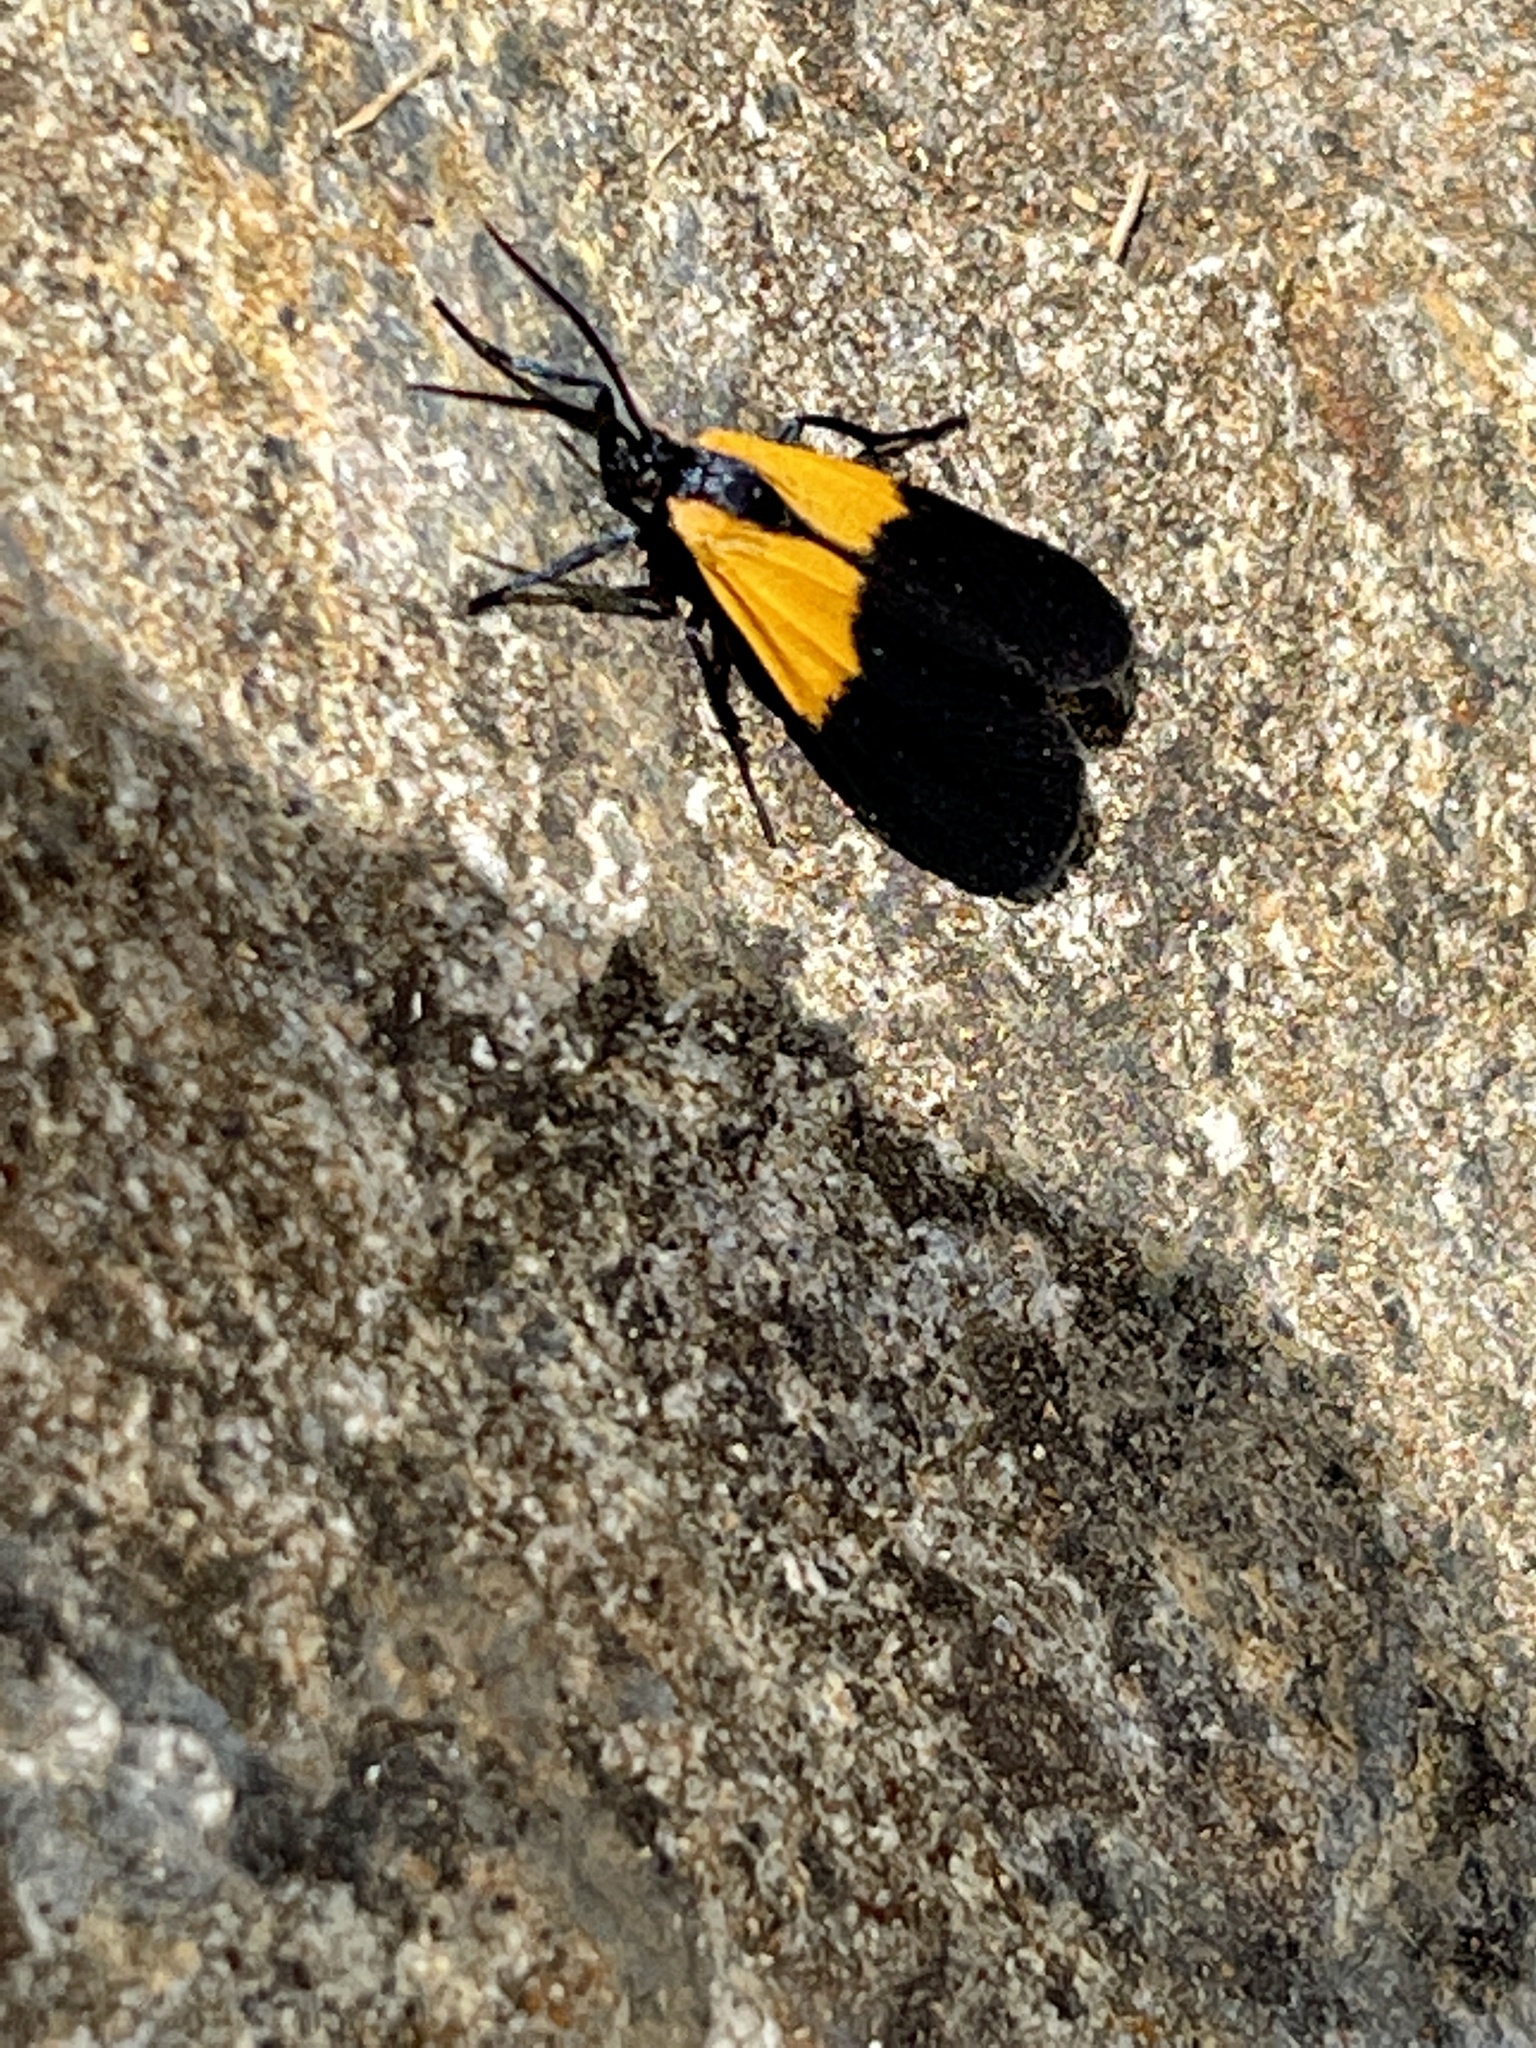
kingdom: Animalia
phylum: Arthropoda
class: Insecta
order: Lepidoptera
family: Erebidae
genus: Lycomorpha
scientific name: Lycomorpha pholus
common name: Black-and-yellow lichen moth
